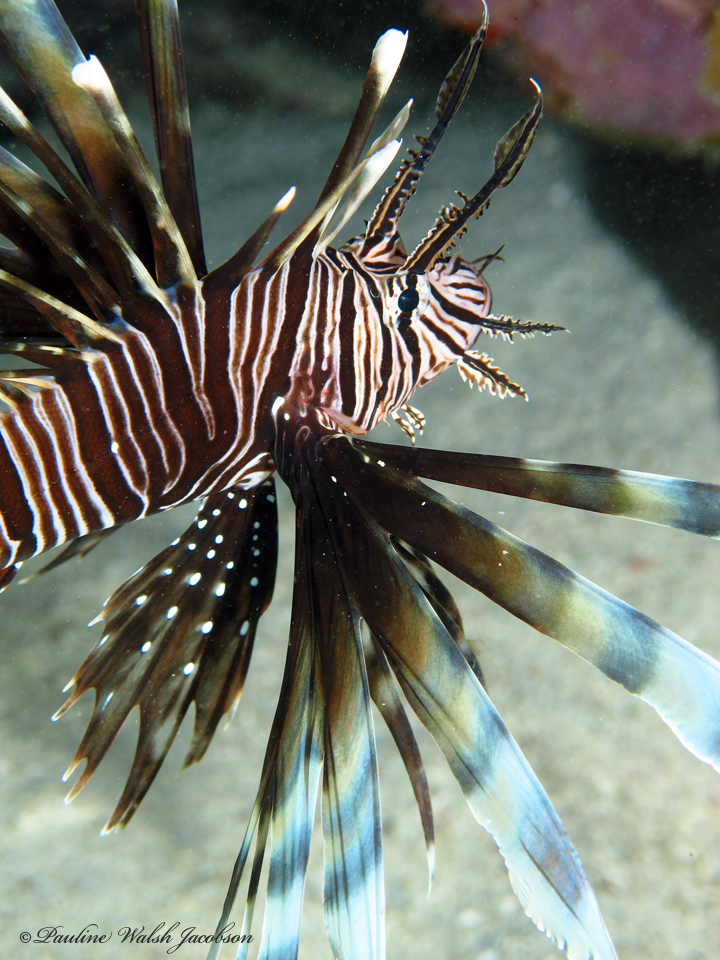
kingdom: Animalia
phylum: Chordata
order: Scorpaeniformes
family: Scorpaenidae
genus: Pterois
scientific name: Pterois volitans
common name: Lionfish
